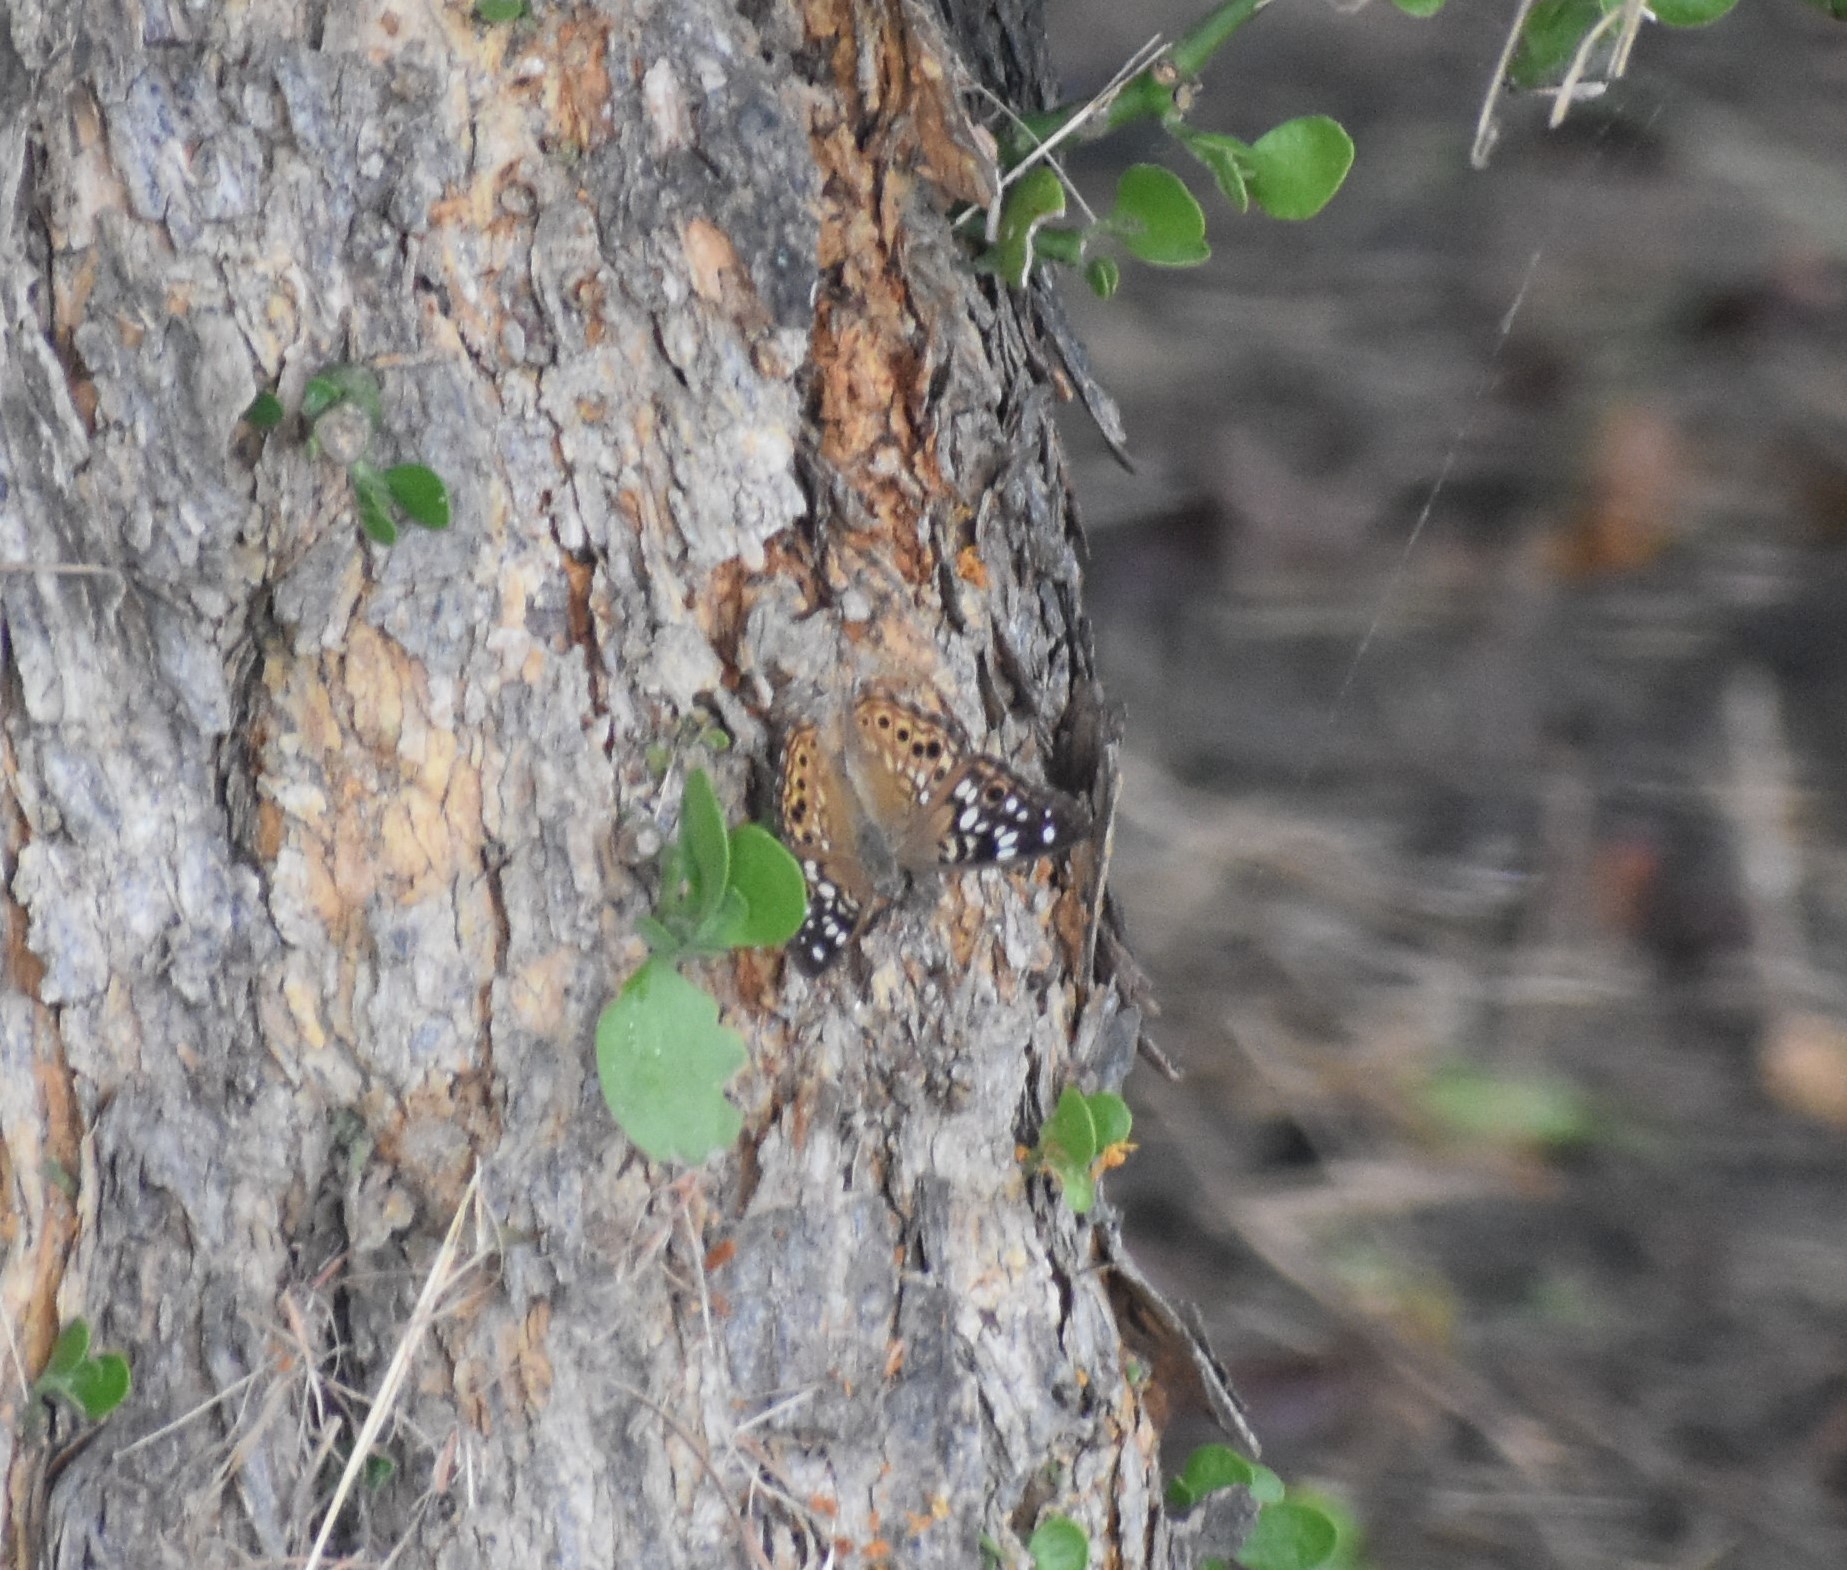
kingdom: Animalia
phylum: Arthropoda
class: Insecta
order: Lepidoptera
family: Nymphalidae
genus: Asterocampa
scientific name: Asterocampa celtis
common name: Hackberry emperor
